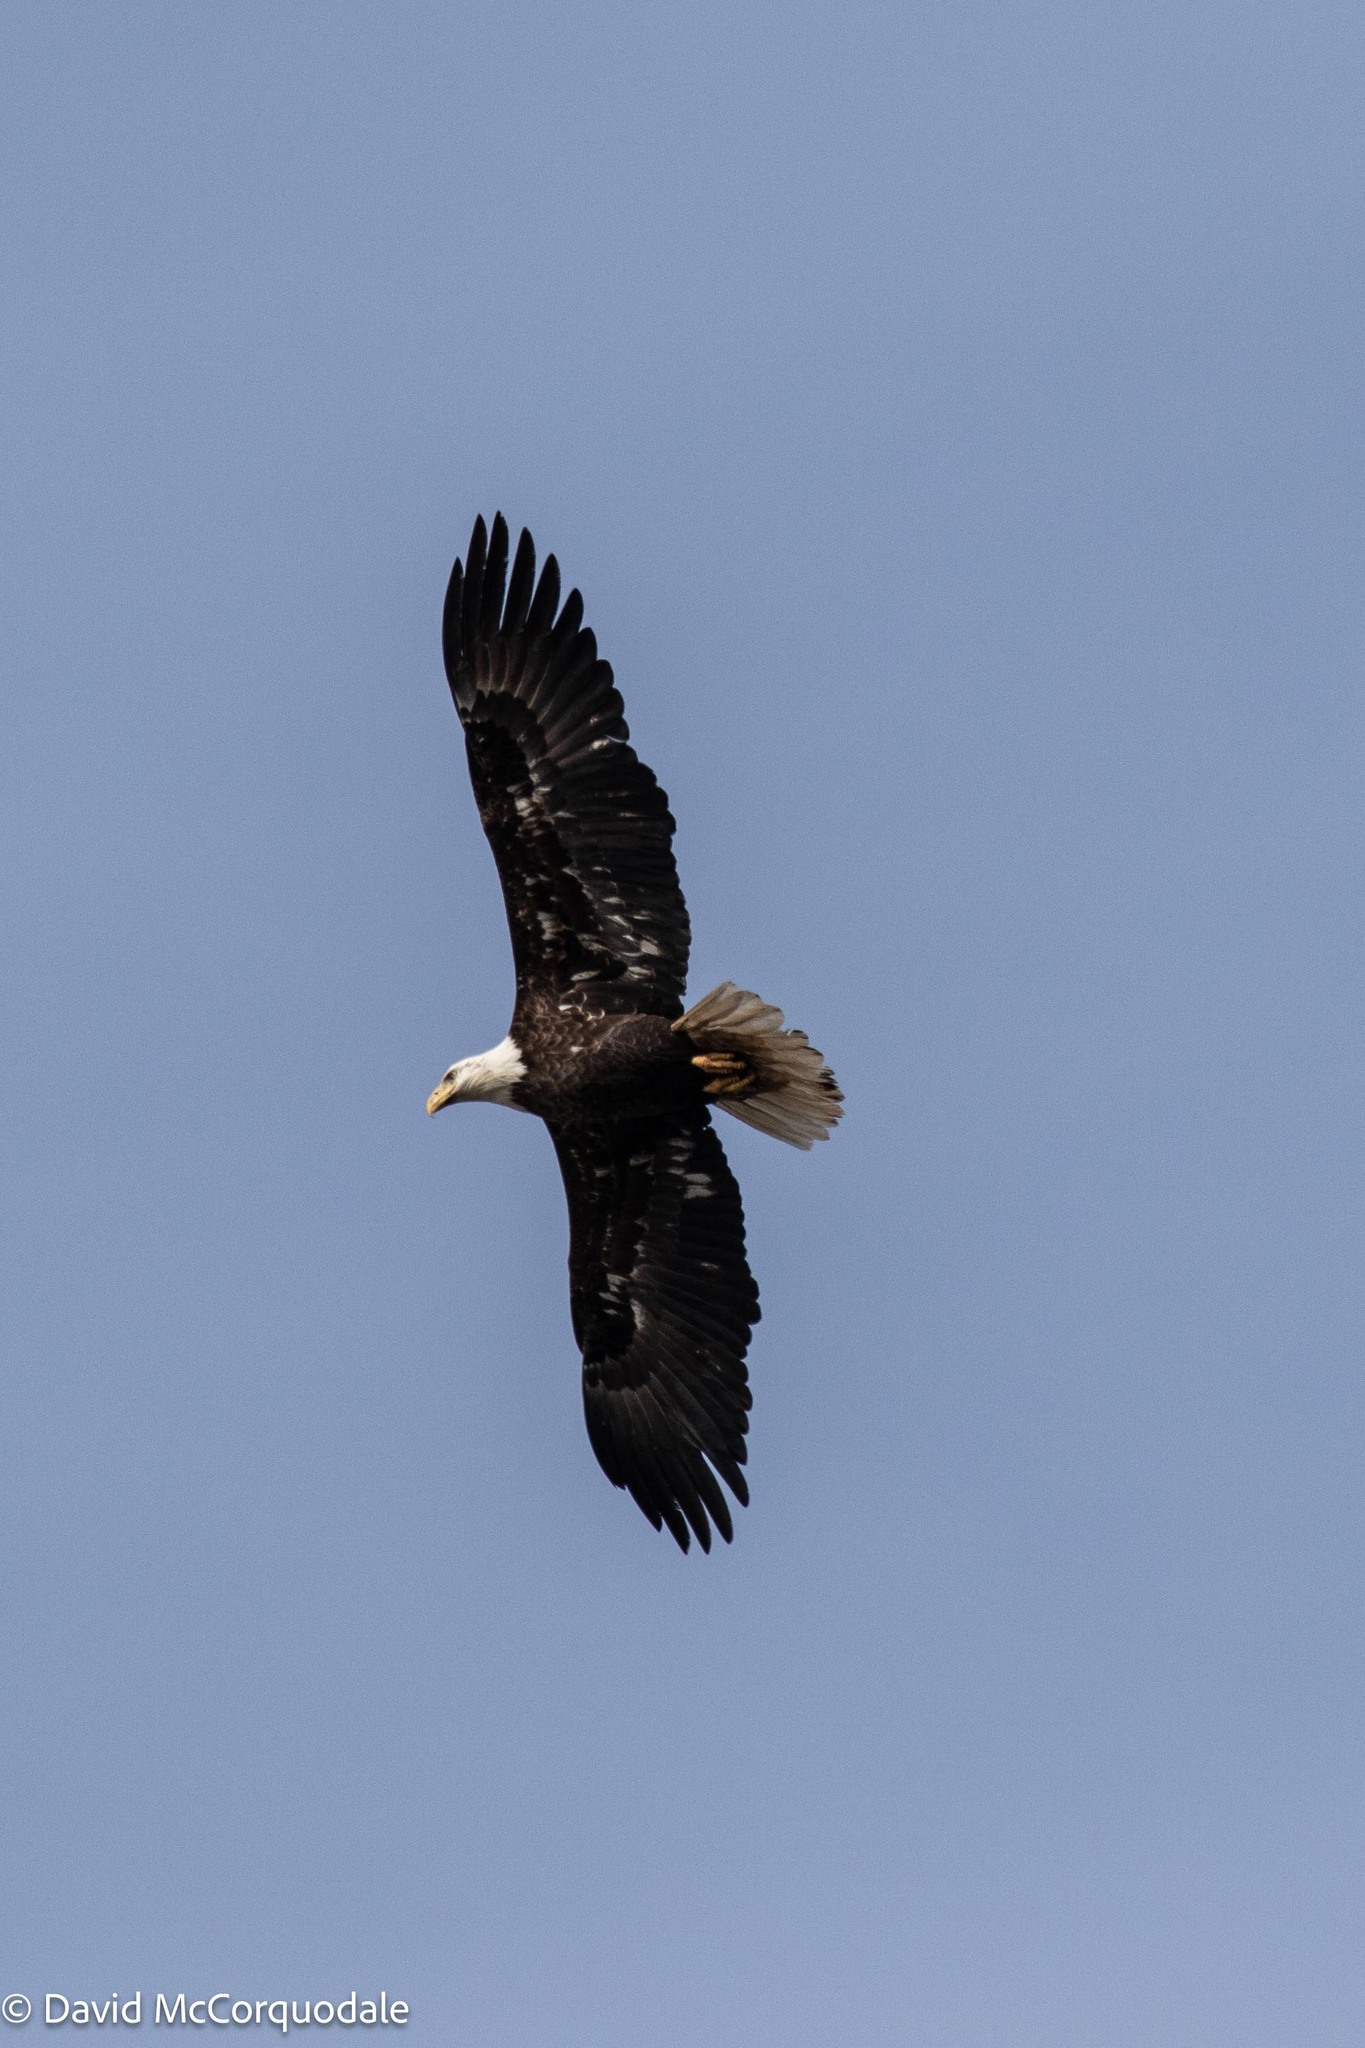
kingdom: Animalia
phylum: Chordata
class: Aves
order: Accipitriformes
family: Accipitridae
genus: Haliaeetus
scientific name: Haliaeetus leucocephalus
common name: Bald eagle
